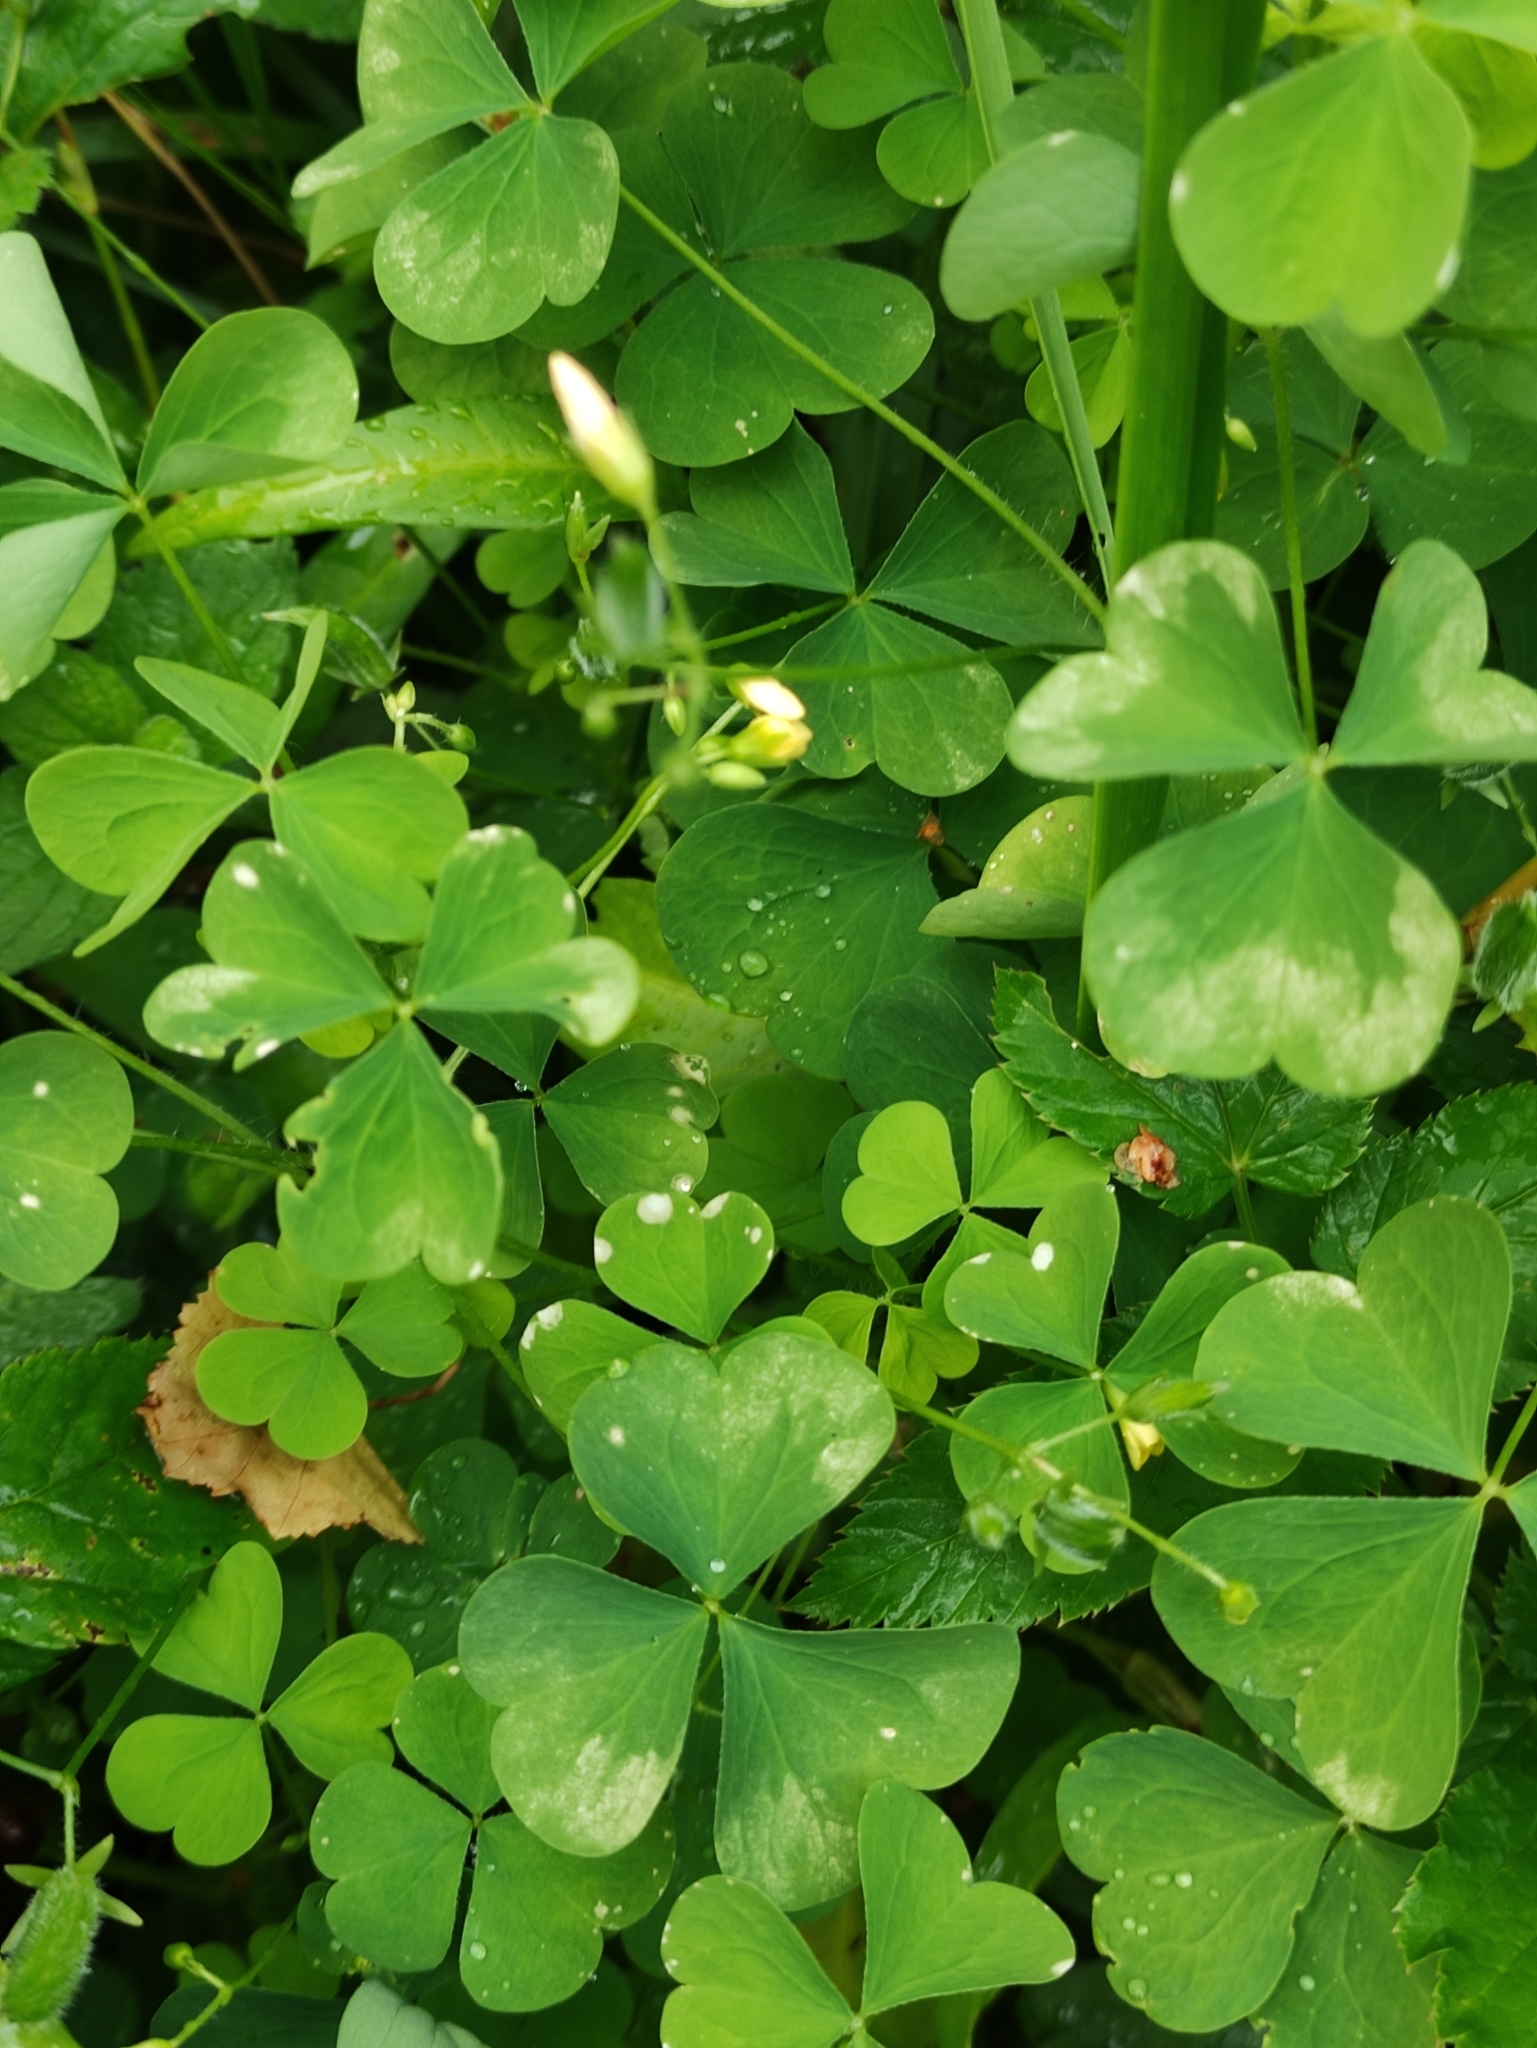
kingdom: Plantae
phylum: Tracheophyta
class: Magnoliopsida
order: Oxalidales
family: Oxalidaceae
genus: Oxalis
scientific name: Oxalis stricta
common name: Upright yellow-sorrel
